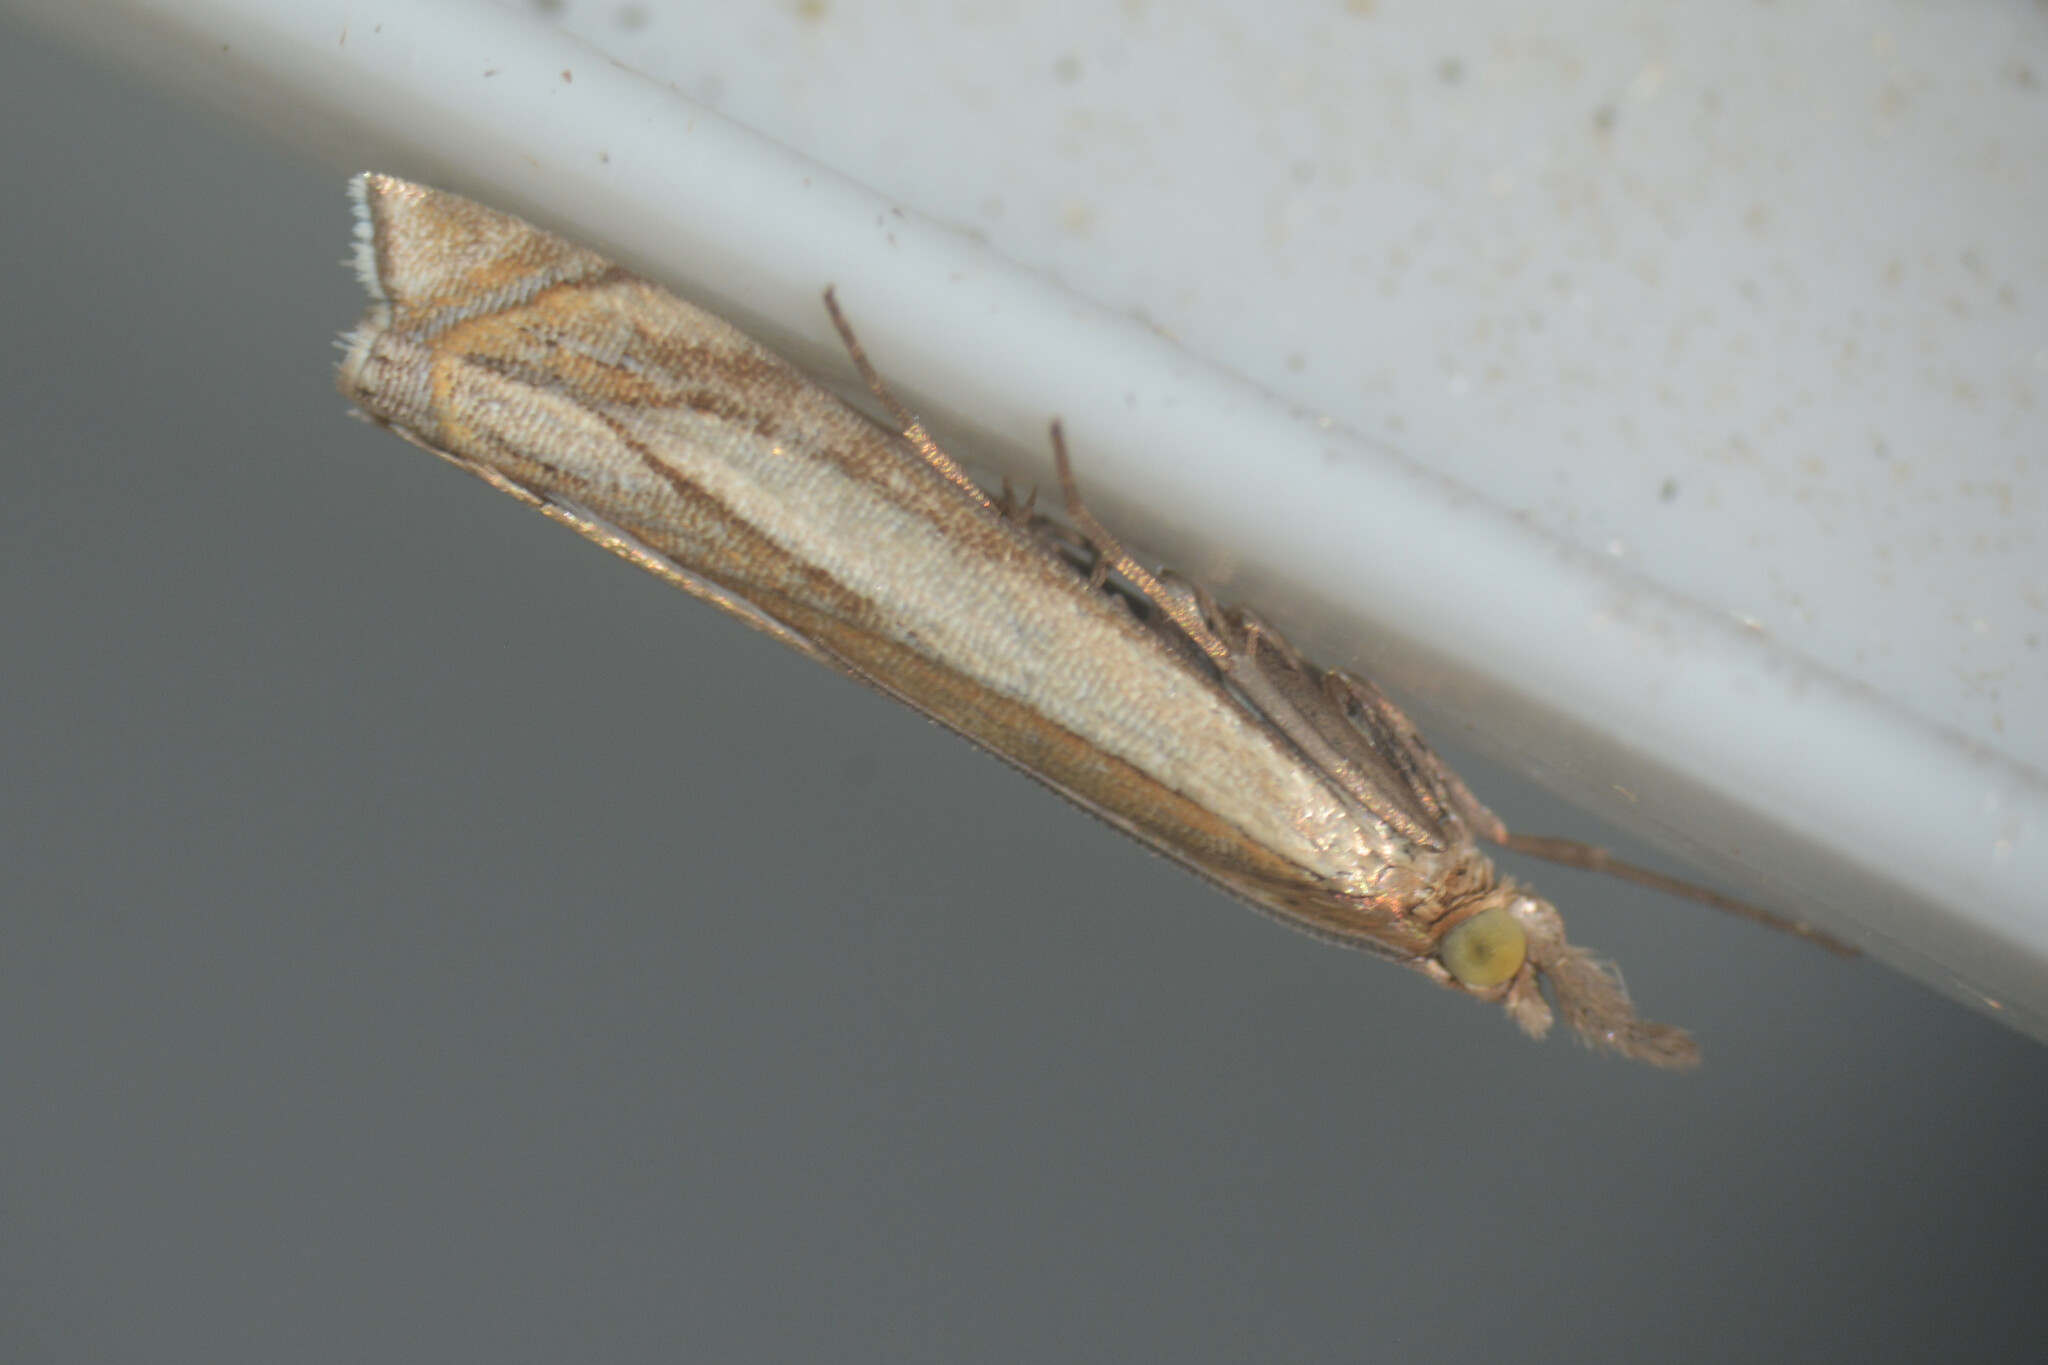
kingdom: Animalia
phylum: Arthropoda
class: Insecta
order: Lepidoptera
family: Crambidae
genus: Crambus
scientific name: Crambus pascuella
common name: Inlaid grass-veneer
